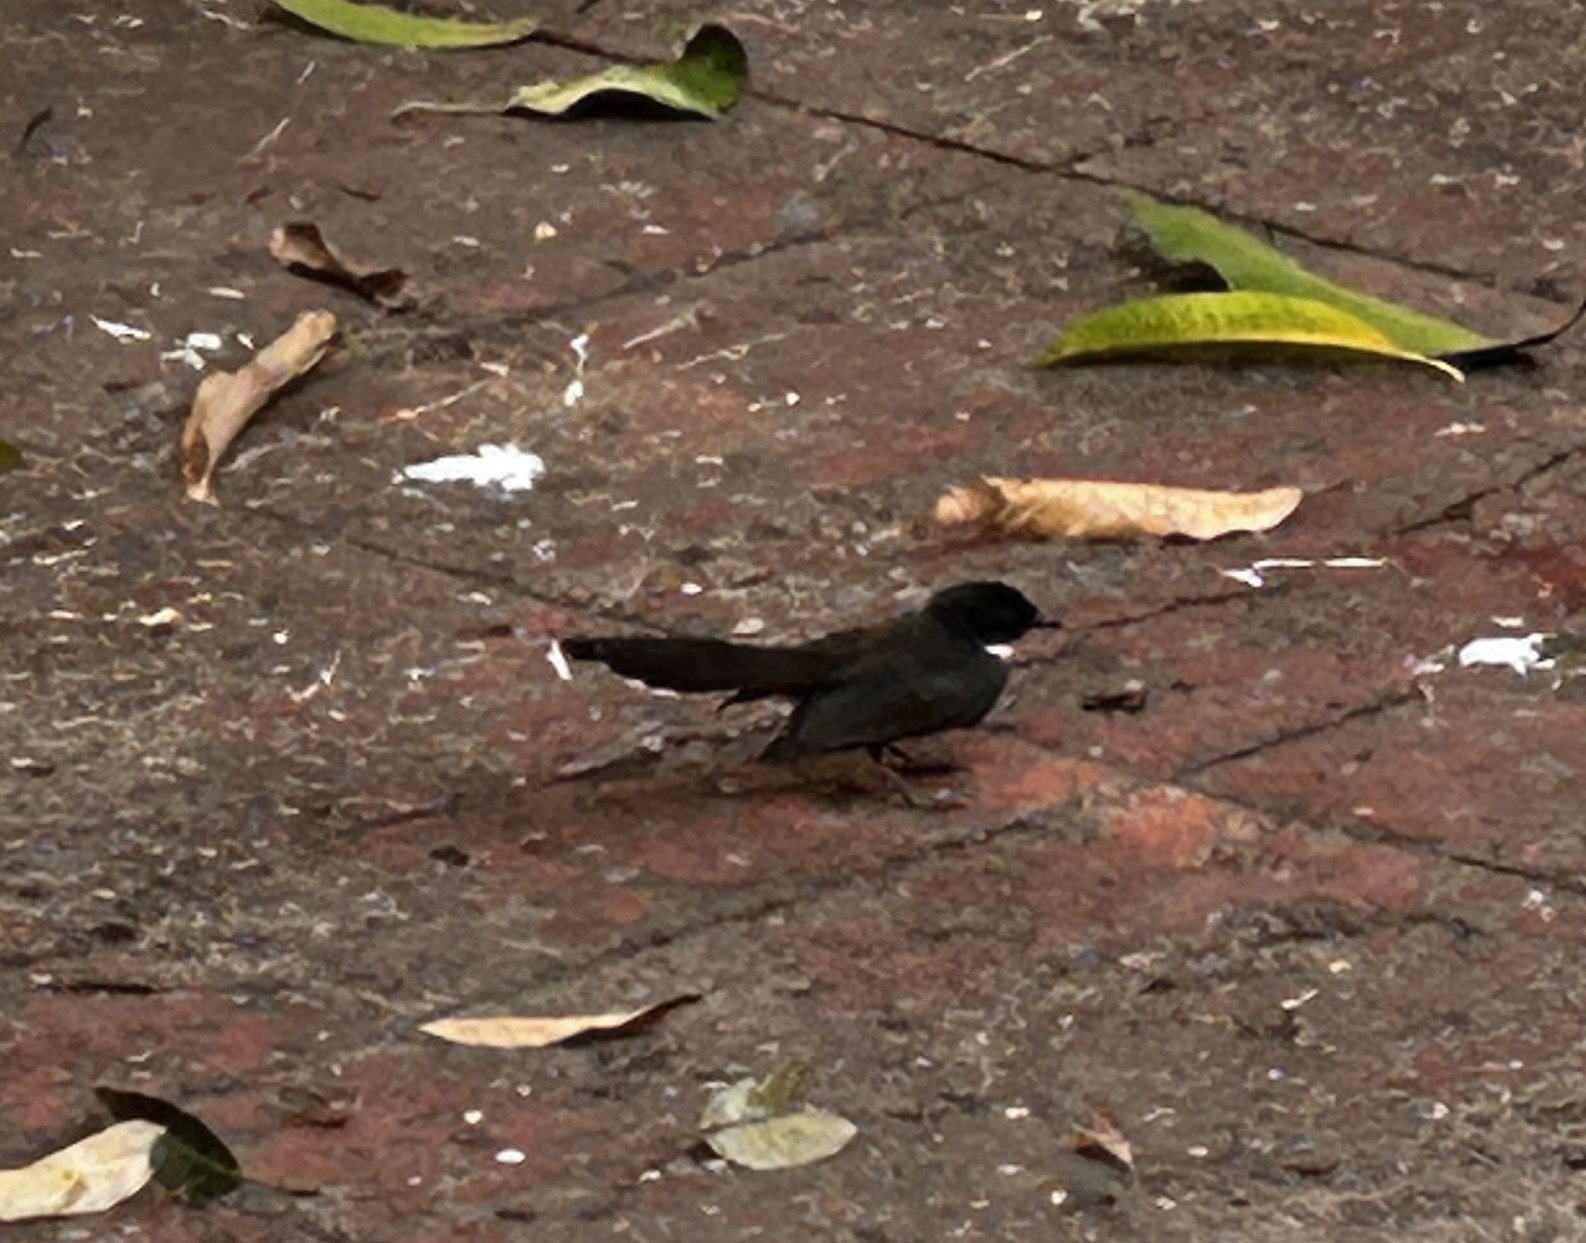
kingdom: Animalia
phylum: Chordata
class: Aves
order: Passeriformes
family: Rhipiduridae
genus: Rhipidura
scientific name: Rhipidura javanica
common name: Pied fantail
